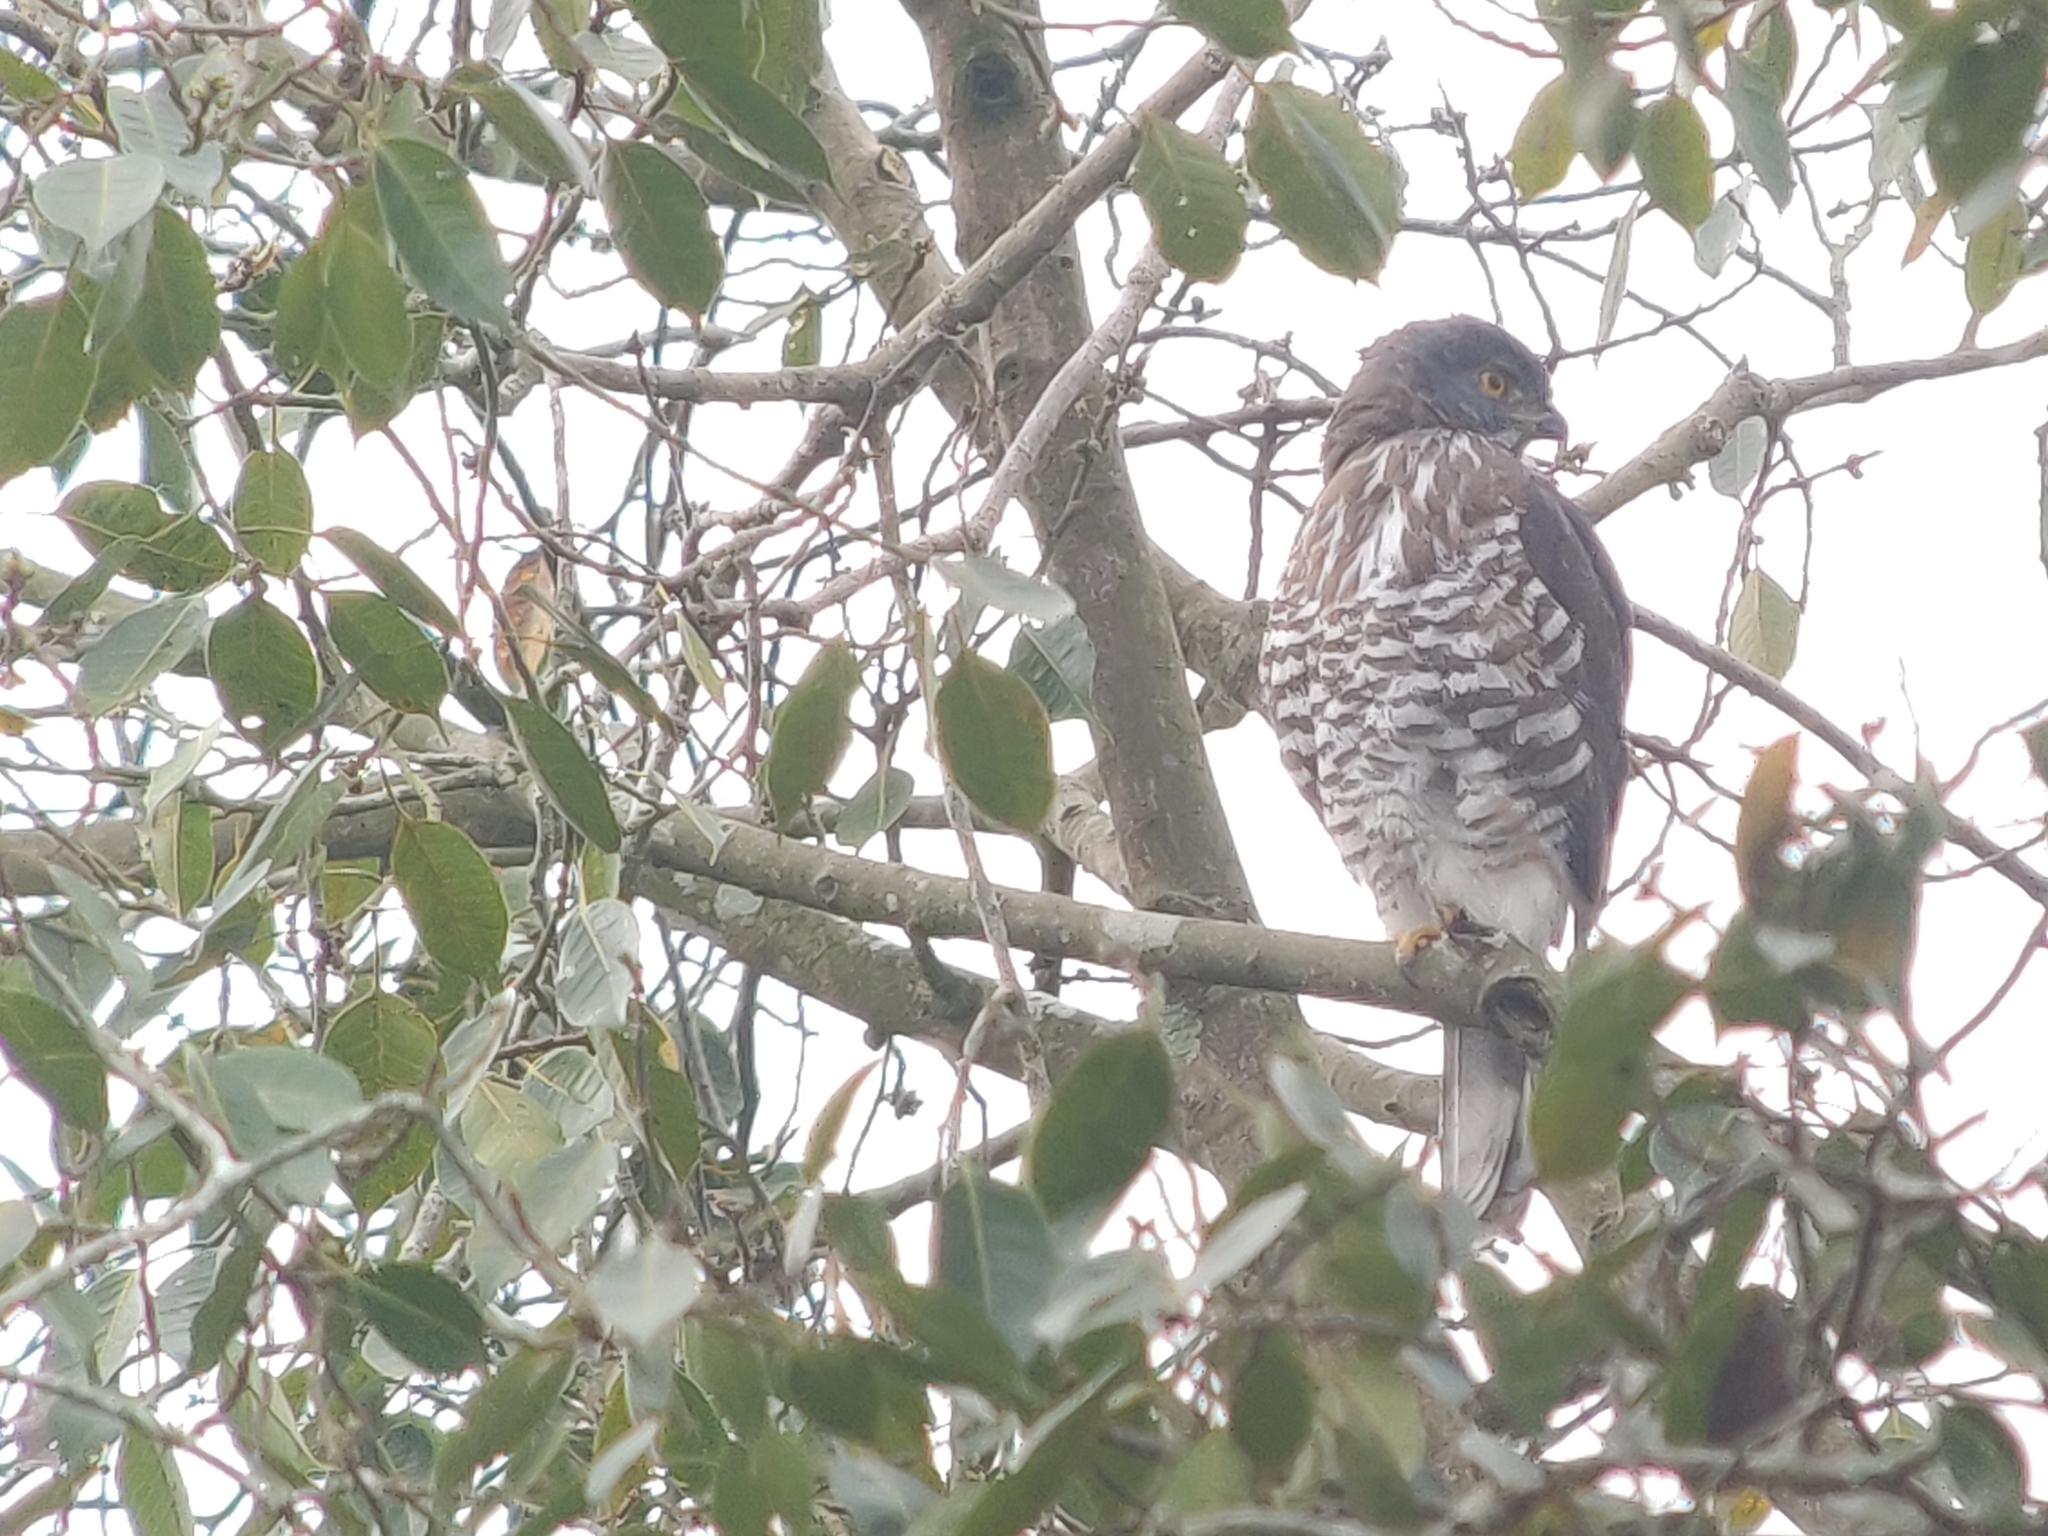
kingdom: Animalia
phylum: Chordata
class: Aves
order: Accipitriformes
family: Accipitridae
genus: Accipiter
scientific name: Accipiter trivirgatus
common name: Crested goshawk
